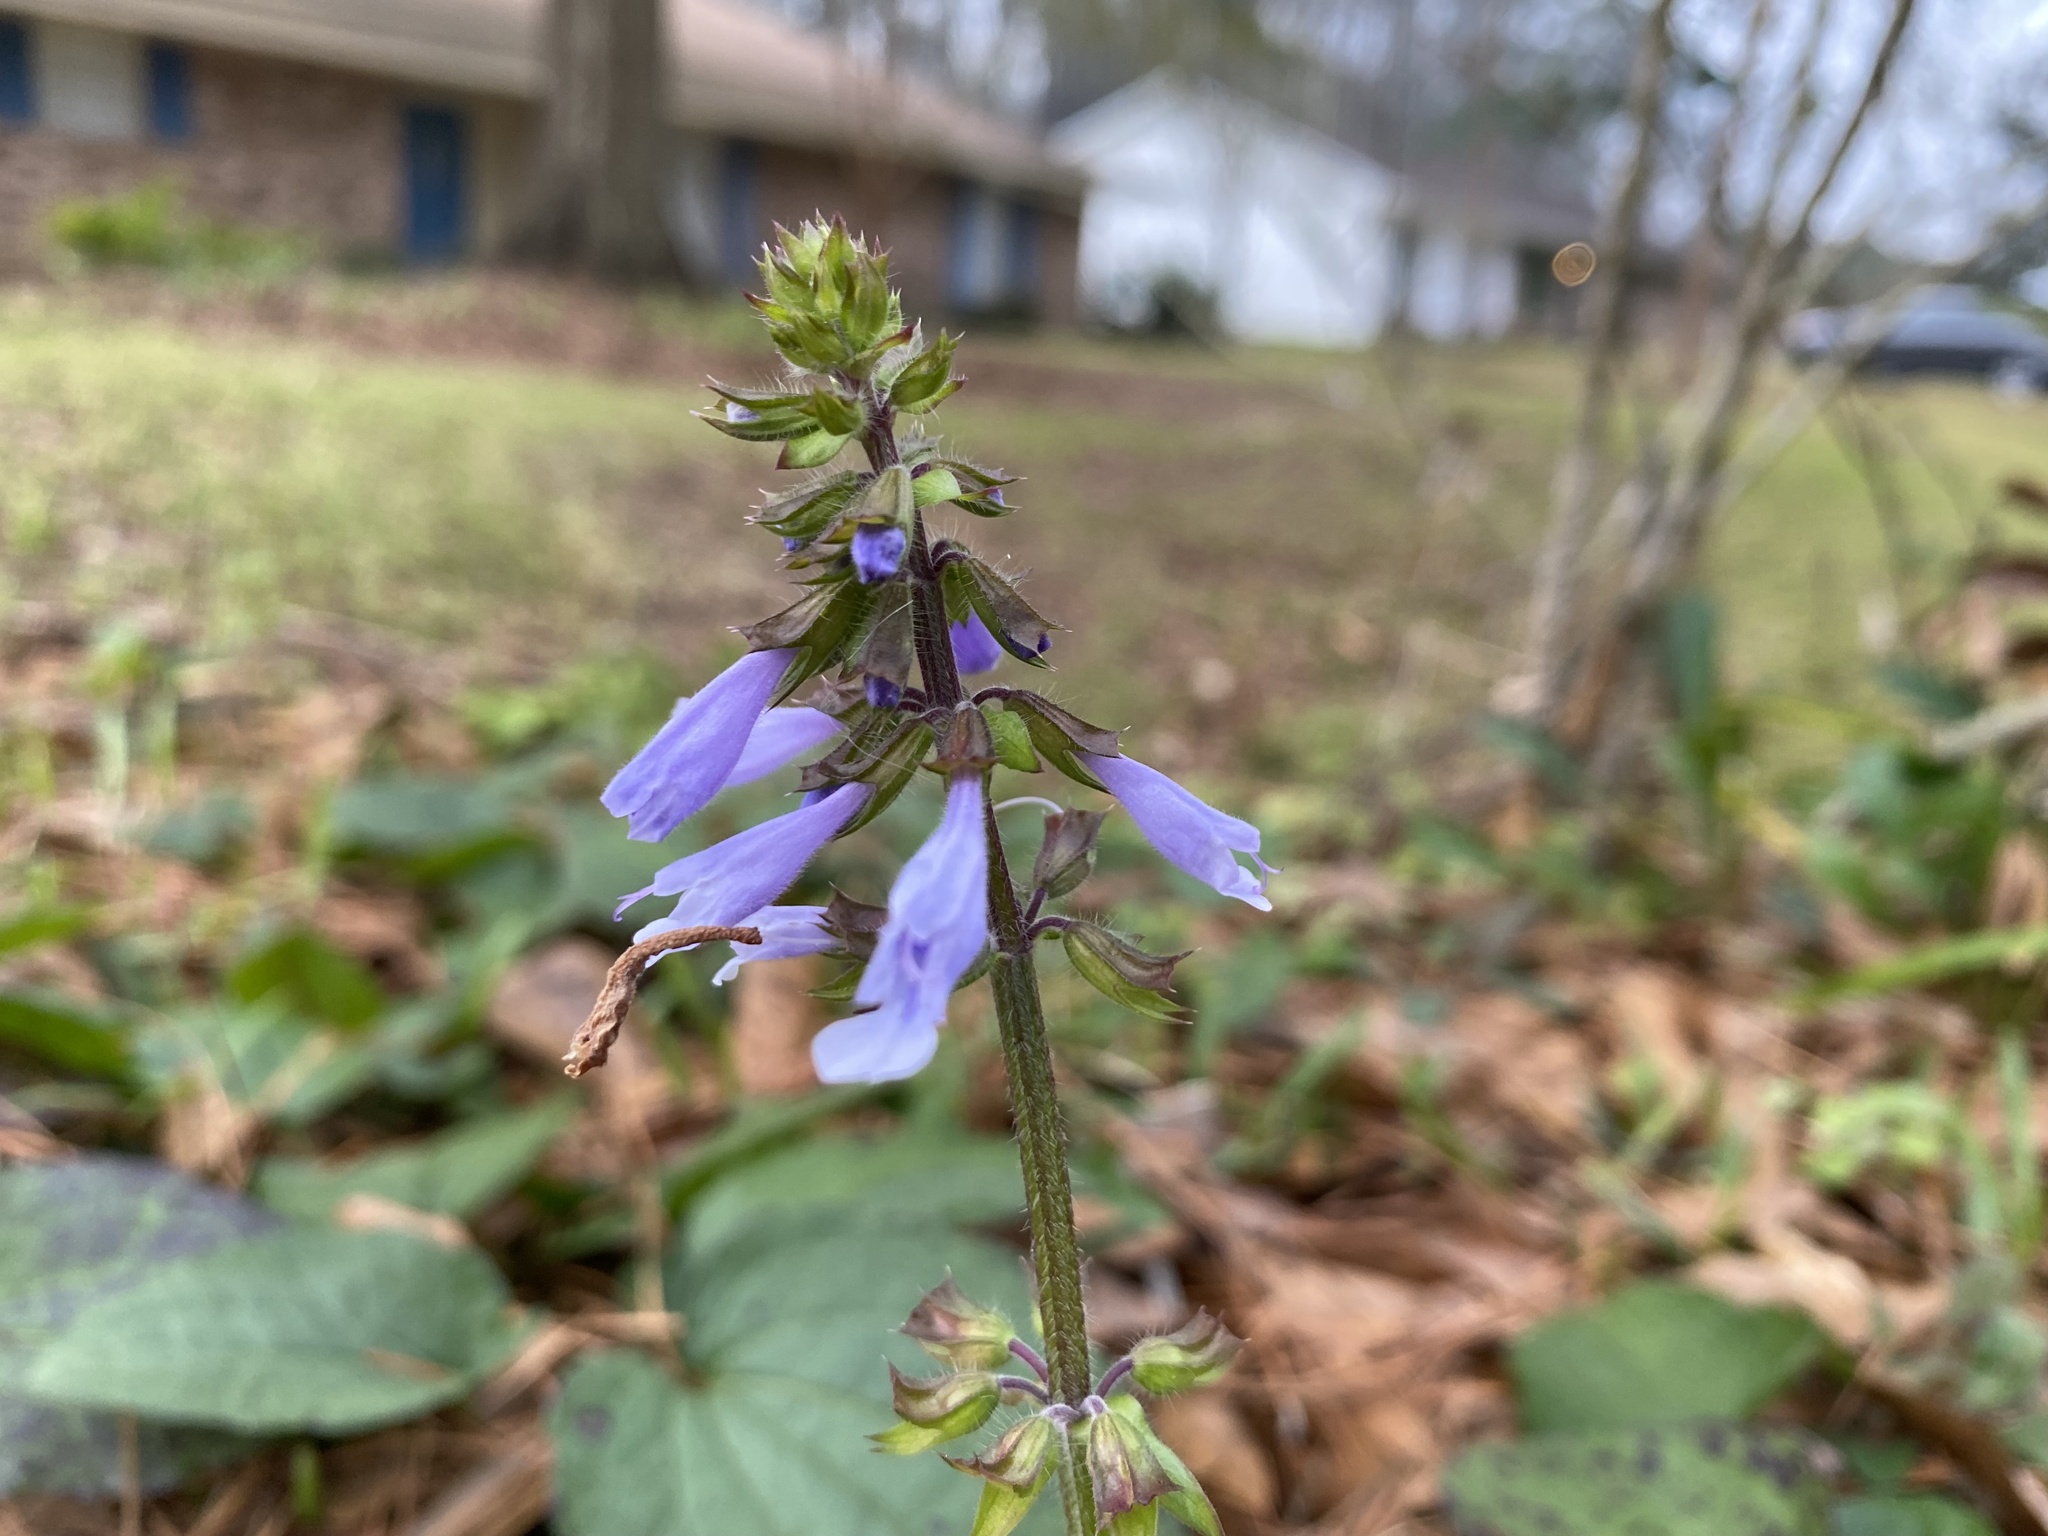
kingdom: Plantae
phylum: Tracheophyta
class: Magnoliopsida
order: Lamiales
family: Lamiaceae
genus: Salvia
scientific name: Salvia lyrata
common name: Cancerweed
